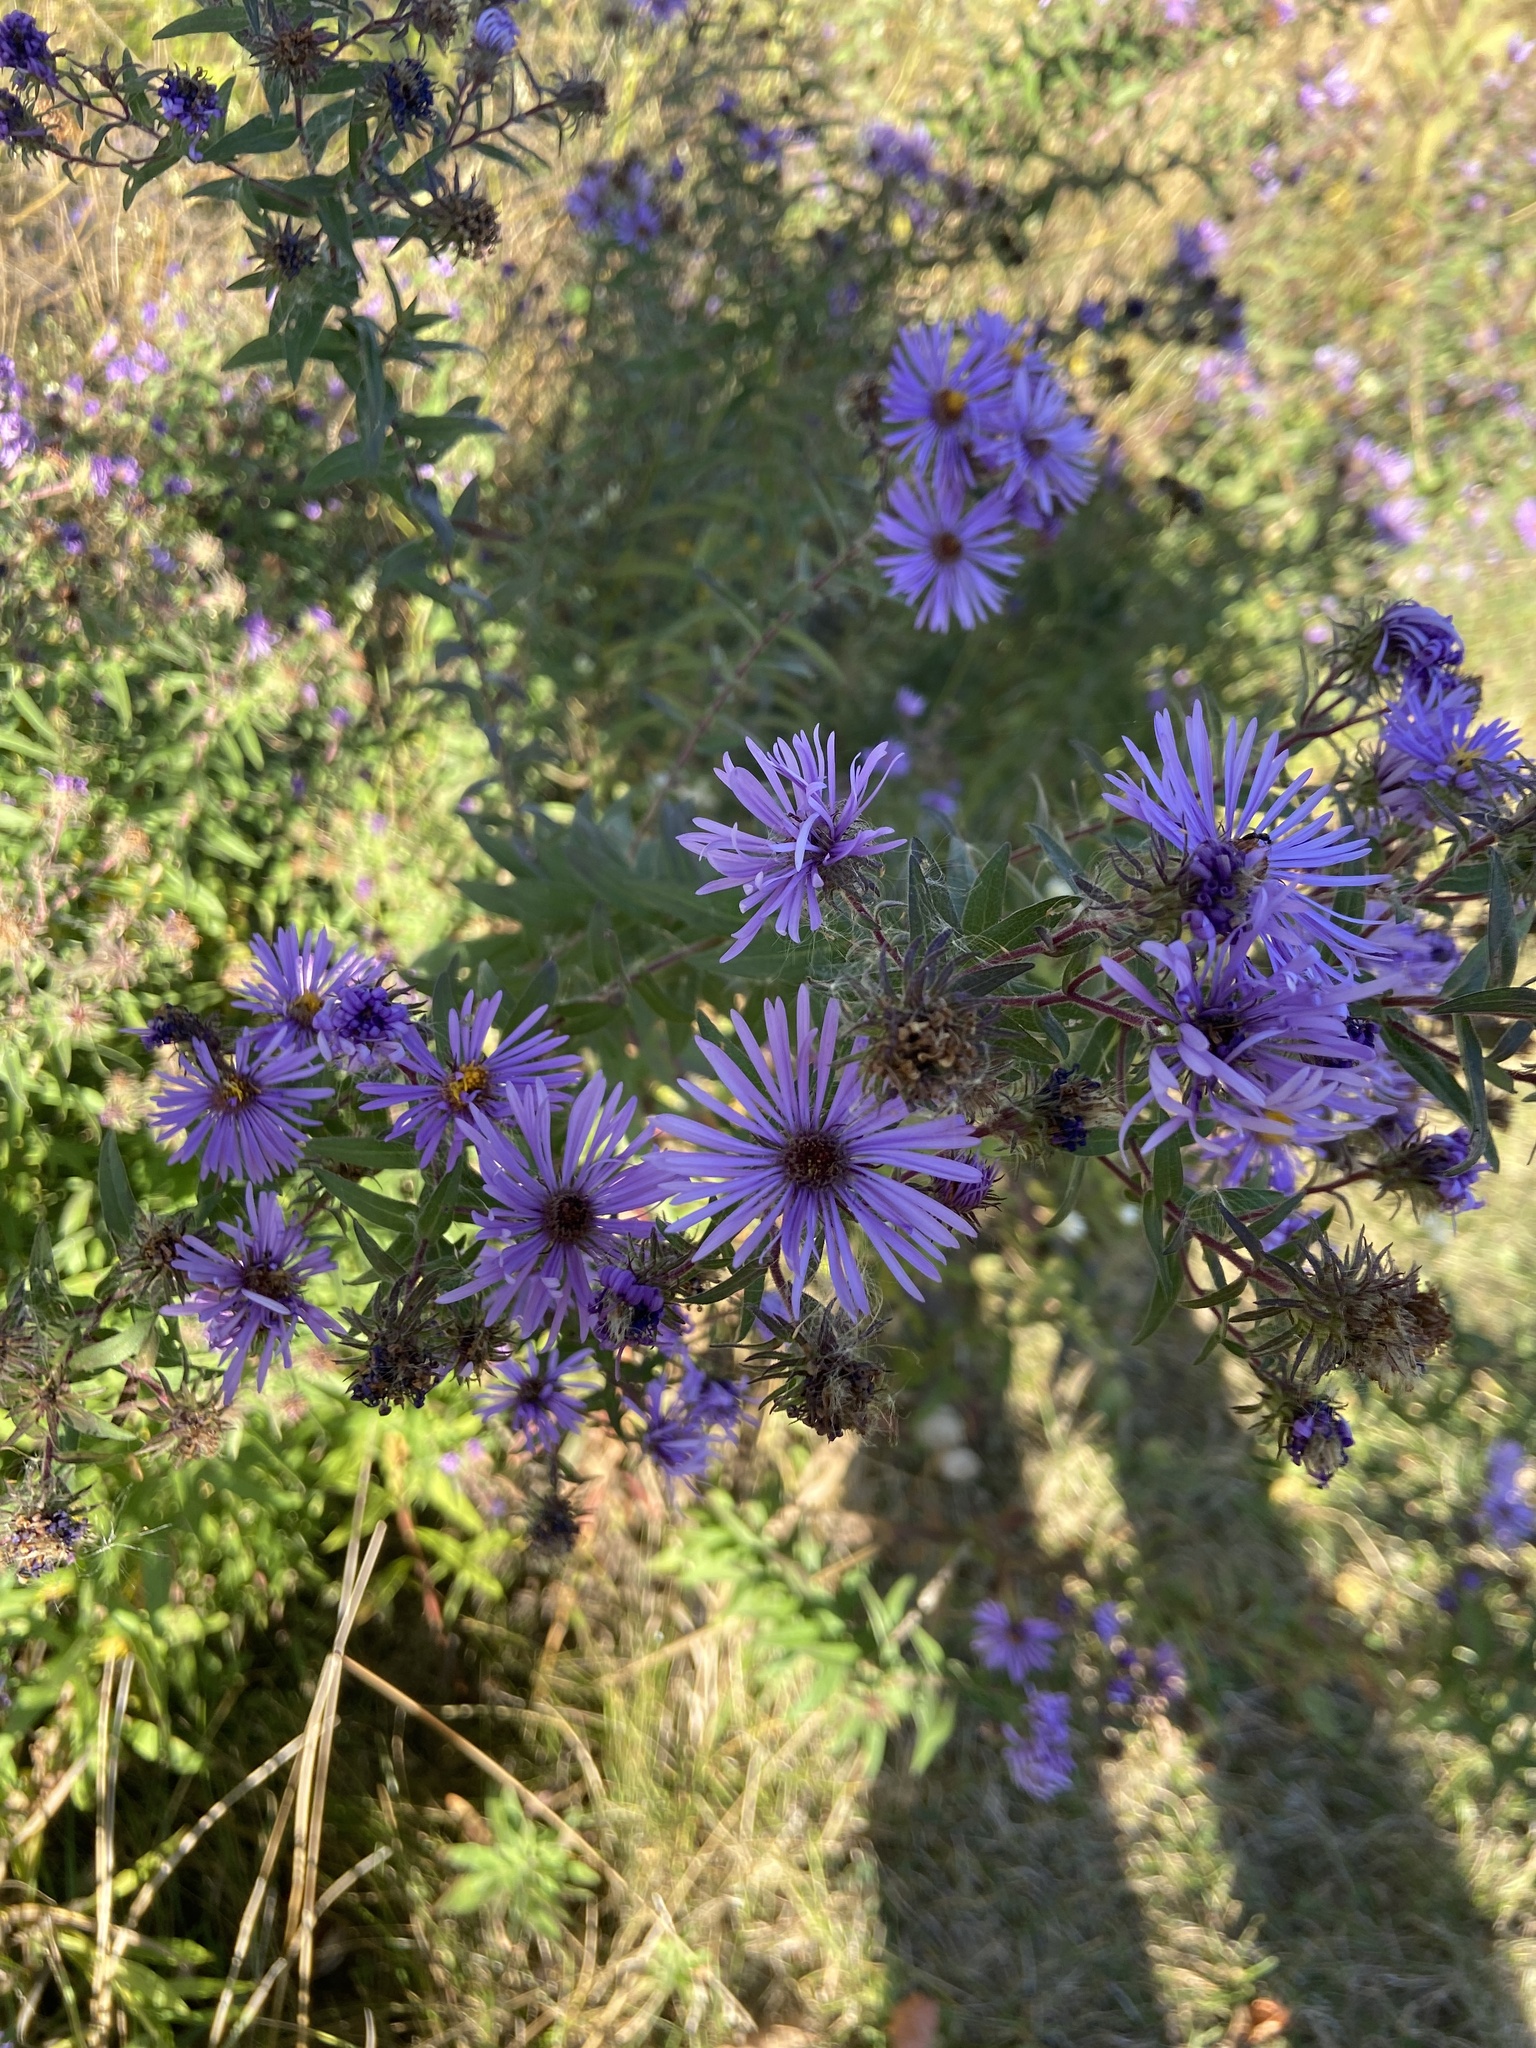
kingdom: Plantae
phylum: Tracheophyta
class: Magnoliopsida
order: Asterales
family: Asteraceae
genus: Symphyotrichum
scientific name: Symphyotrichum novae-angliae
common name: Michaelmas daisy
